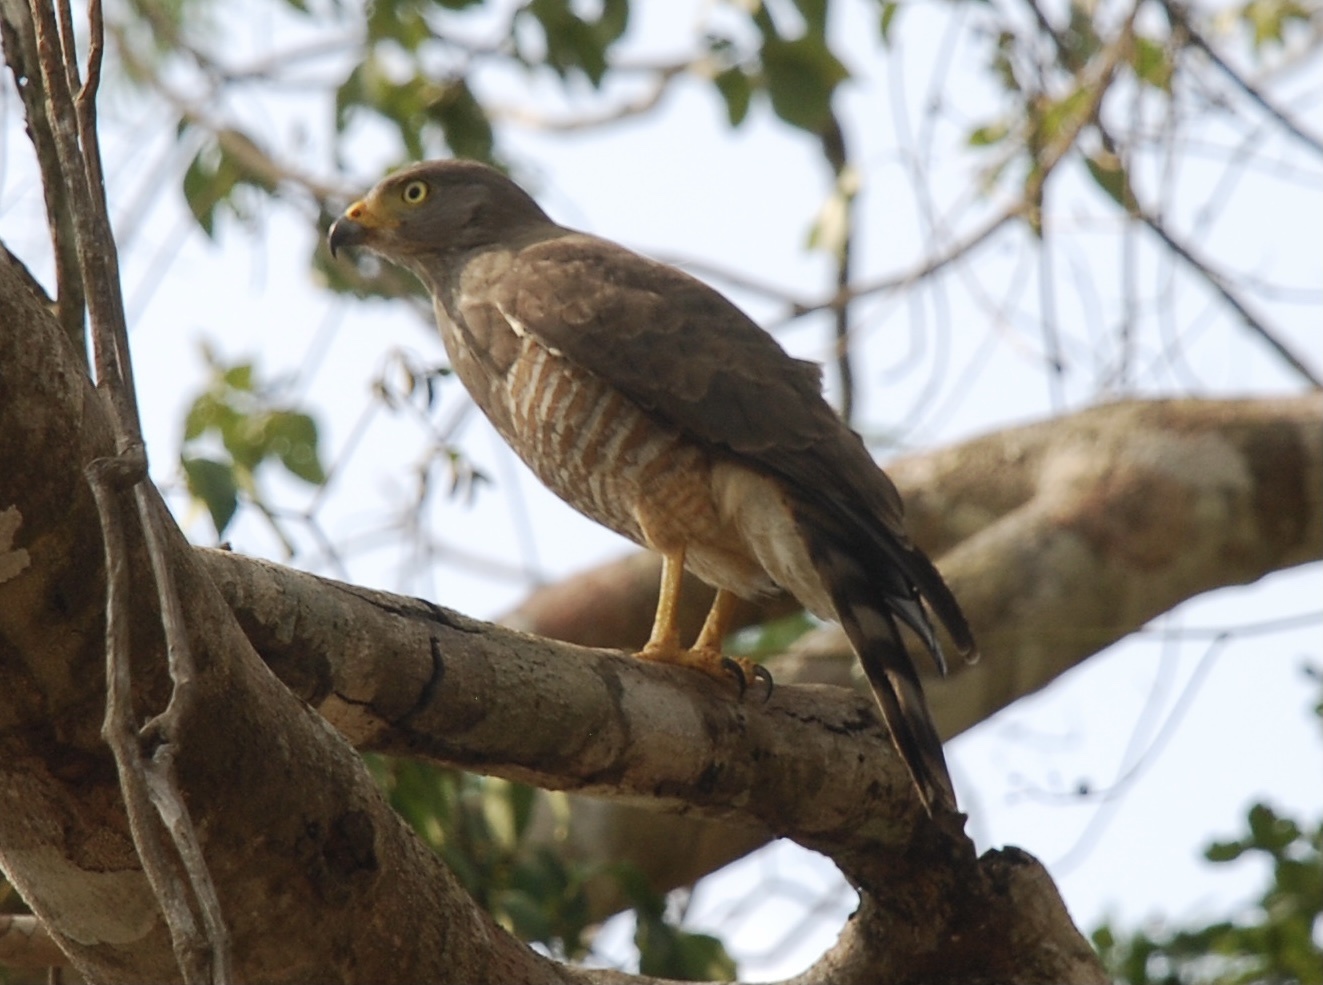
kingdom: Animalia
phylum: Chordata
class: Aves
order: Accipitriformes
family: Accipitridae
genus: Rupornis
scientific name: Rupornis magnirostris
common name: Roadside hawk
